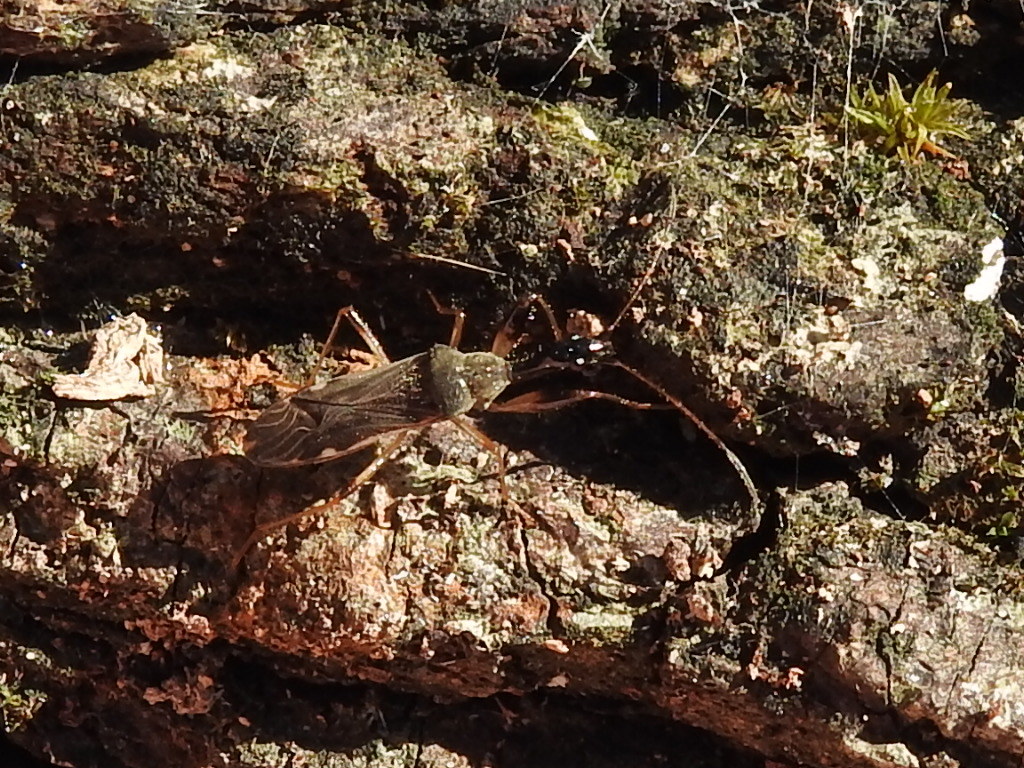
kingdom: Animalia
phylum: Arthropoda
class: Insecta
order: Hemiptera
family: Rhyparochromidae
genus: Myodocha
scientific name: Myodocha serripes
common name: Long-necked seed bug
